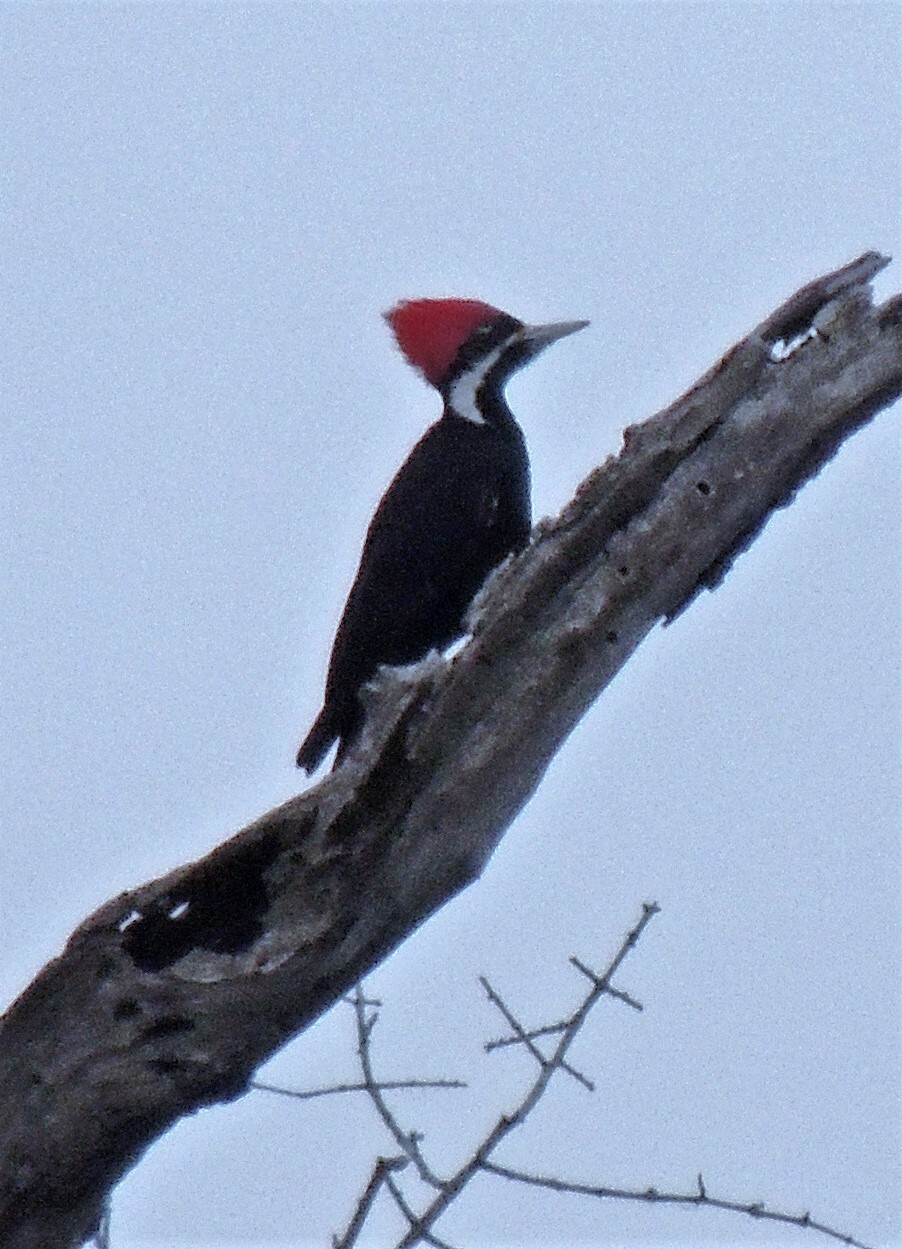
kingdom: Animalia
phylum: Chordata
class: Aves
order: Piciformes
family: Picidae
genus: Dryocopus
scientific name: Dryocopus schulzii
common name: Black-bodied woodpecker
